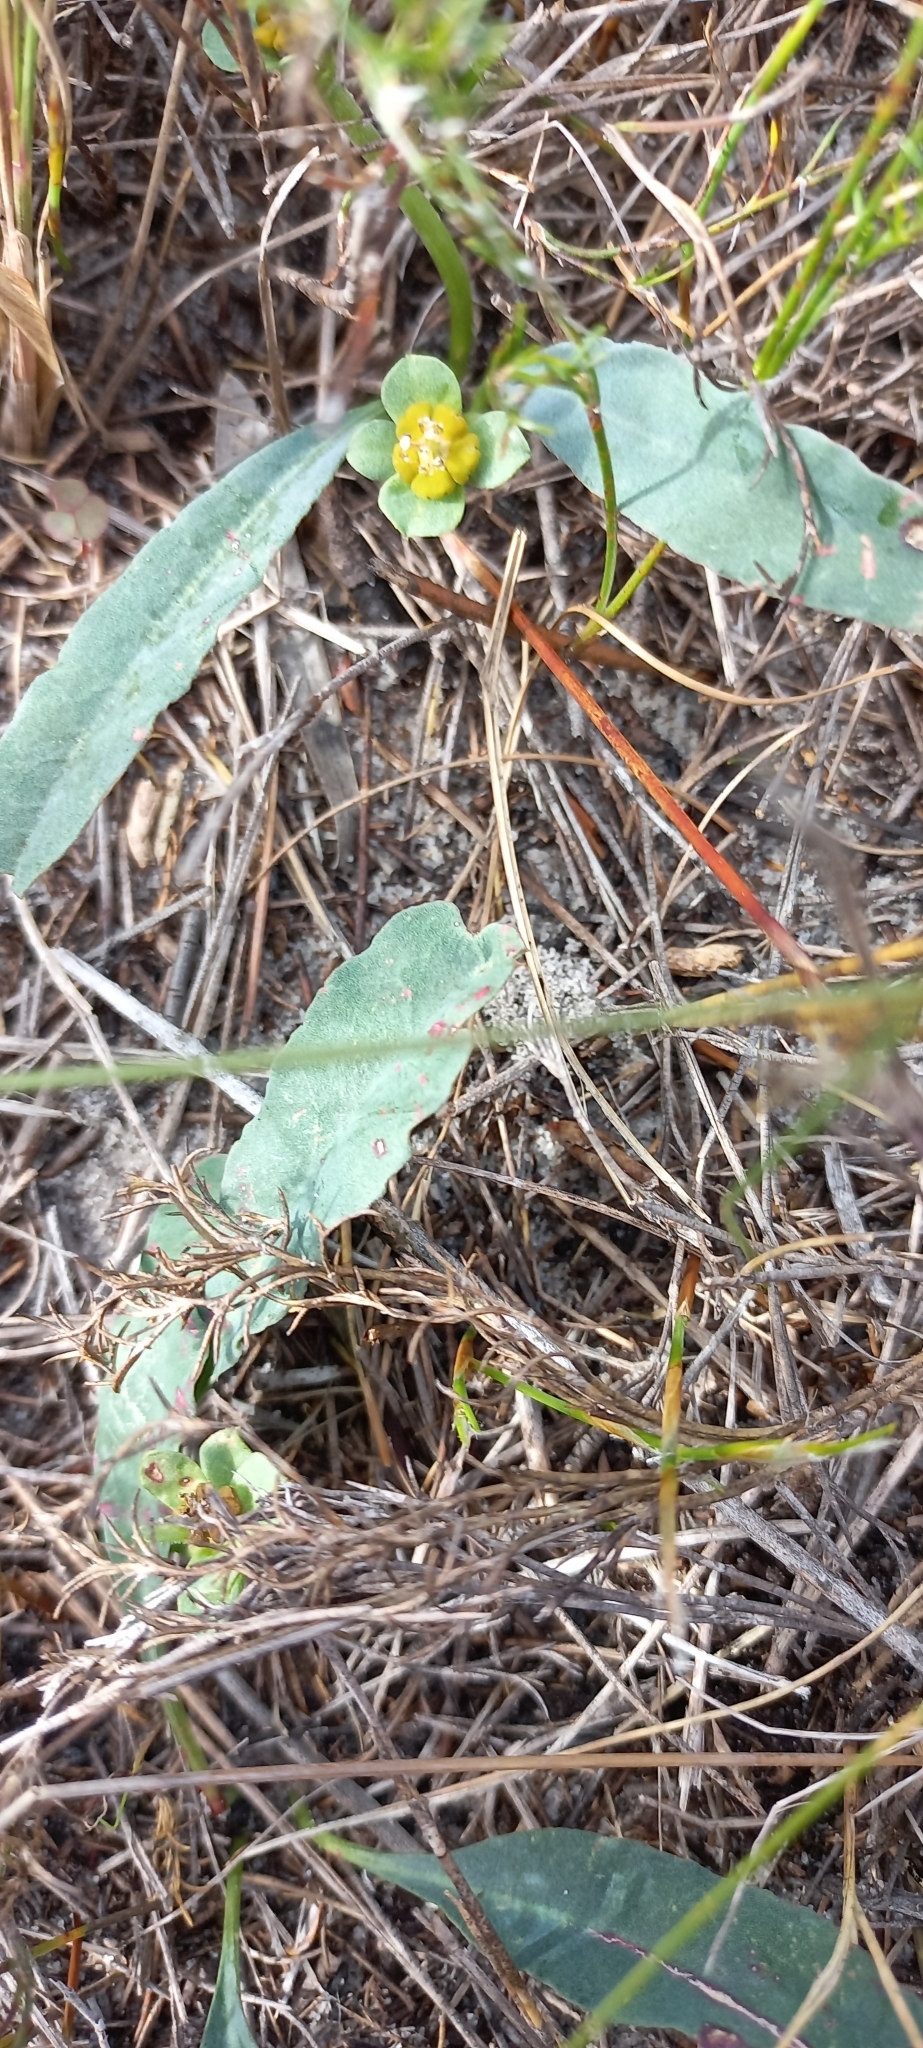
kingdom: Plantae
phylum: Tracheophyta
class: Magnoliopsida
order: Malpighiales
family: Euphorbiaceae
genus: Euphorbia
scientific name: Euphorbia tuberosa
